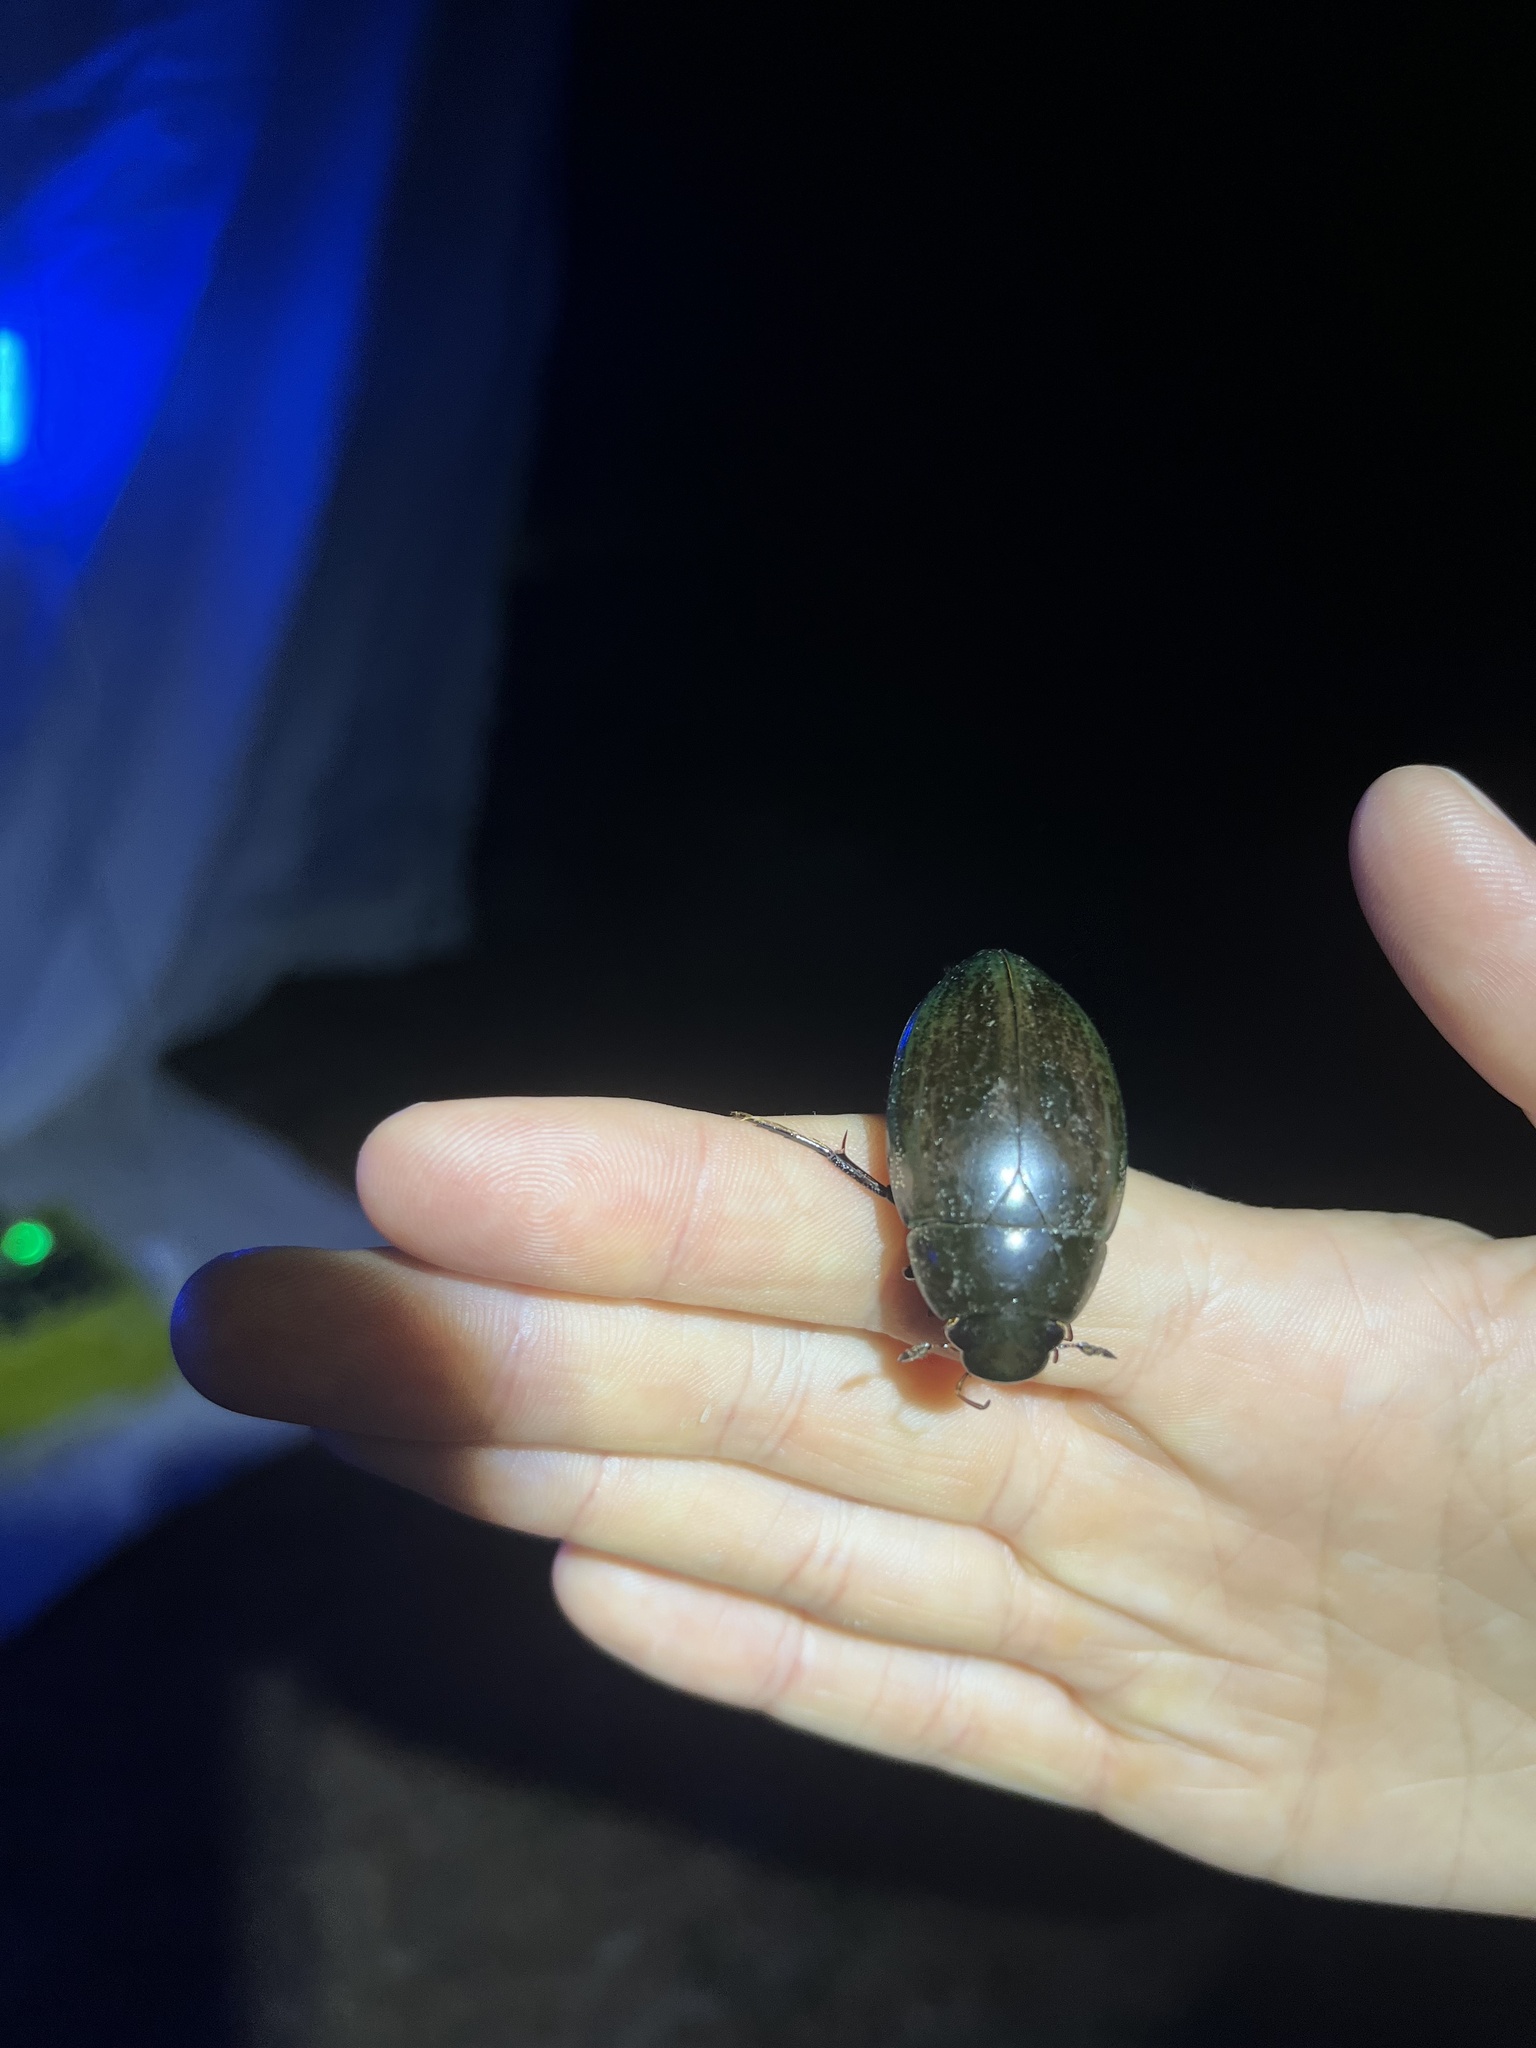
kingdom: Animalia
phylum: Arthropoda
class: Insecta
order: Coleoptera
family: Hydrophilidae
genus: Hydrophilus
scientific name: Hydrophilus
